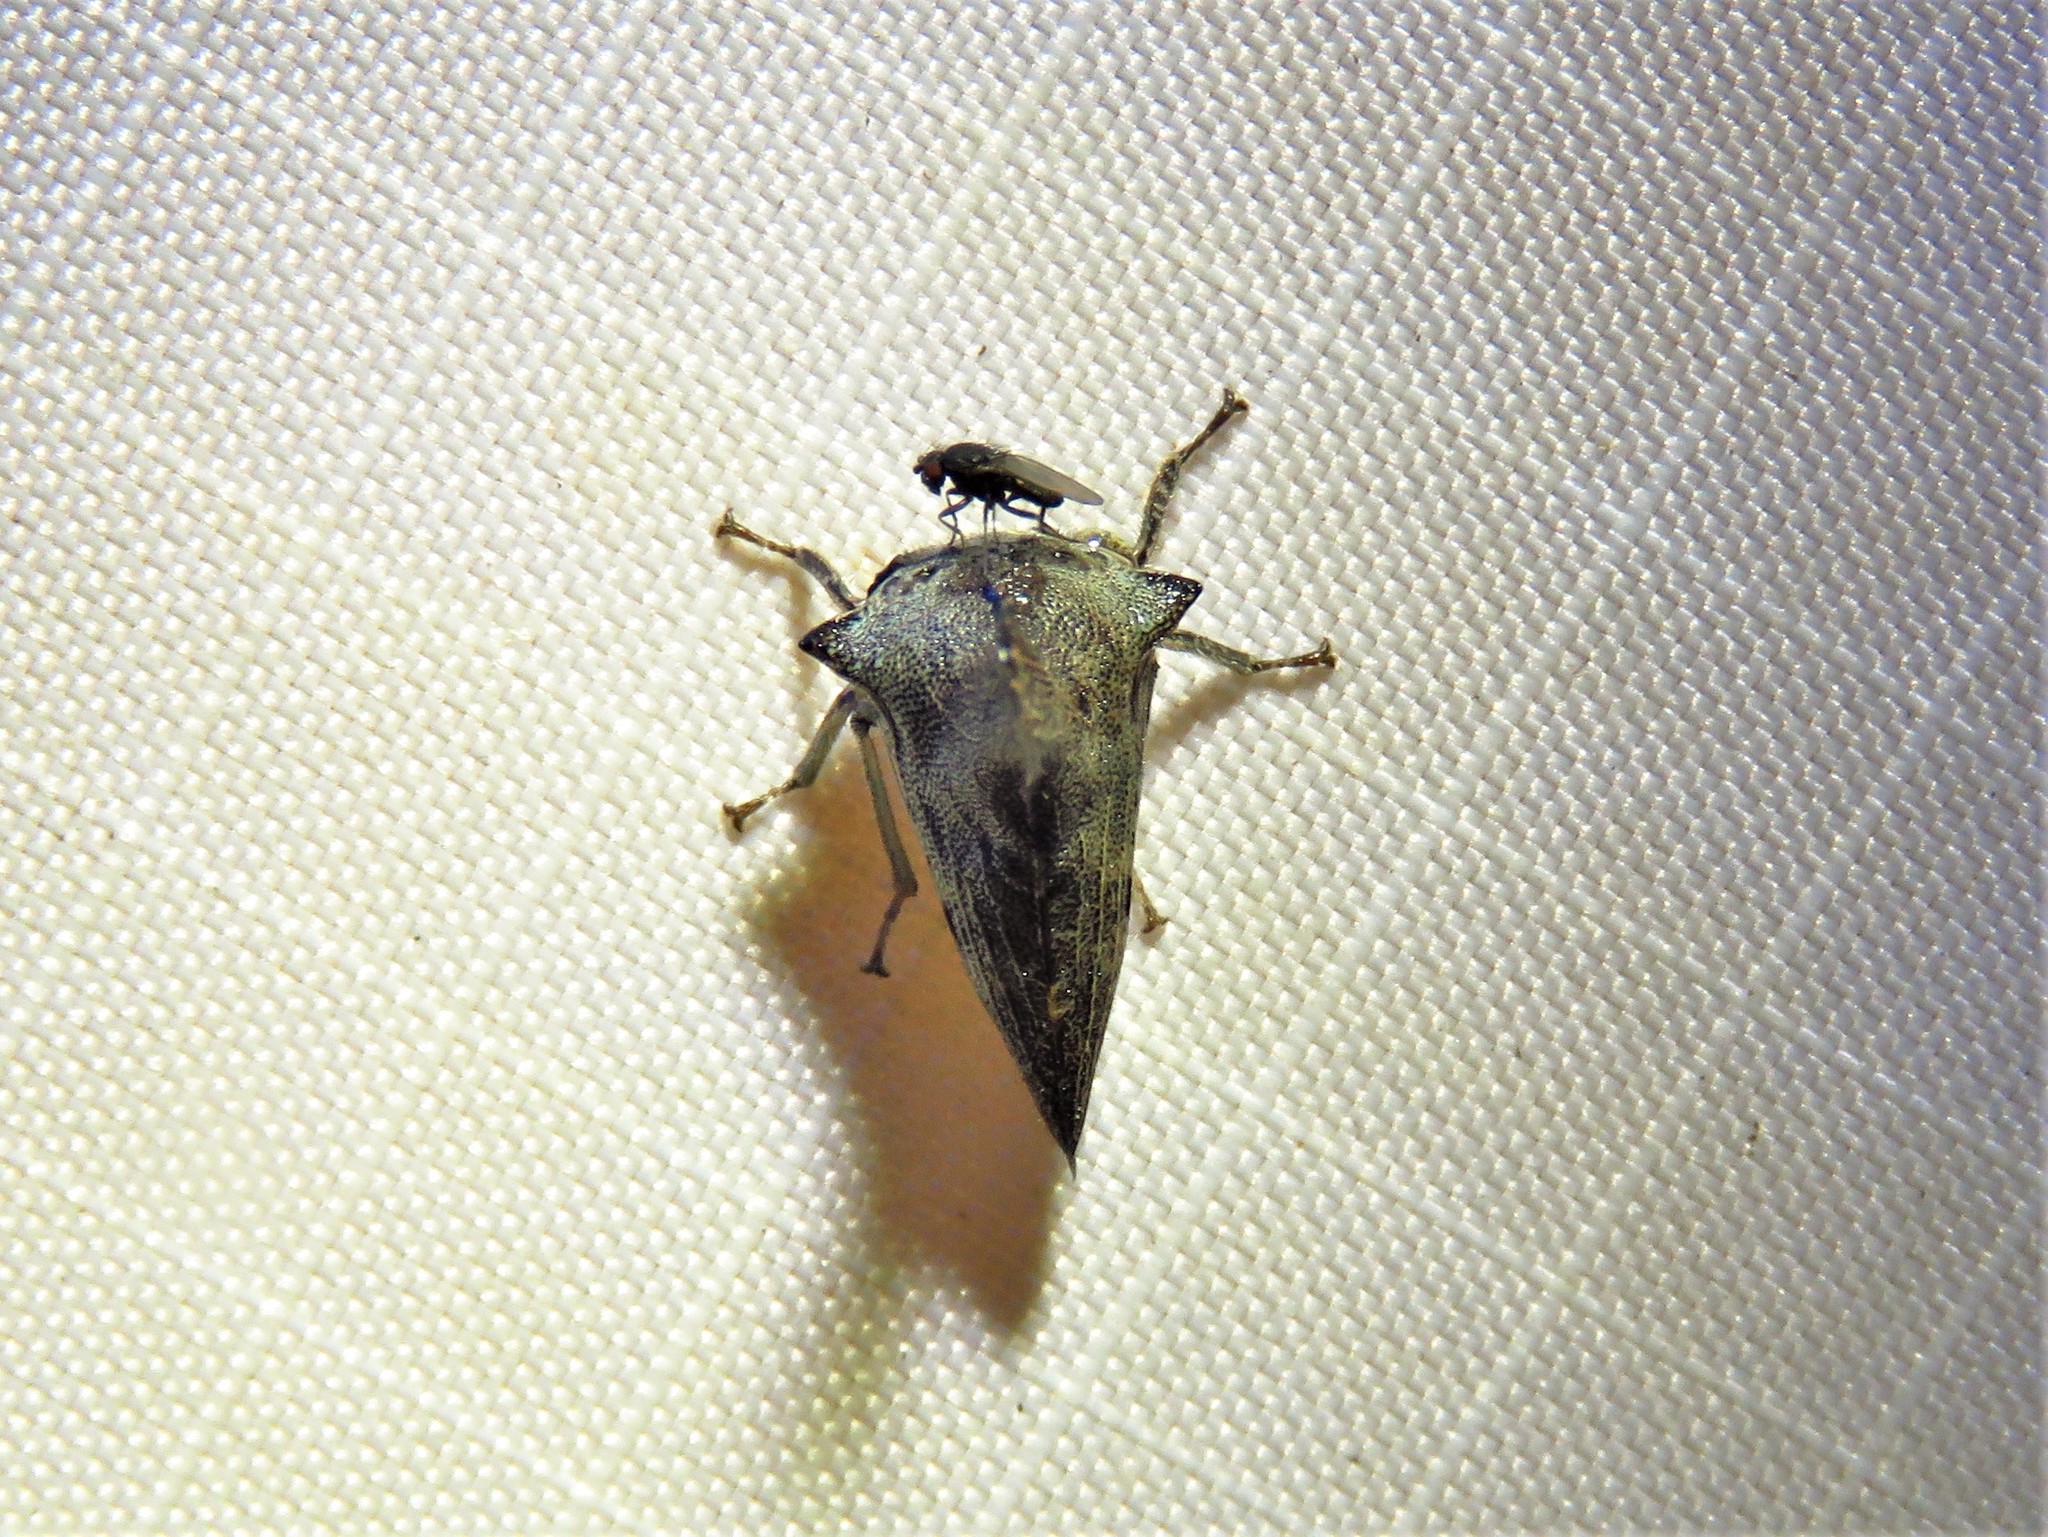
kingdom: Animalia
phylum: Arthropoda
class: Insecta
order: Hemiptera
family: Membracidae
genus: Glossonotus
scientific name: Glossonotus acuminata
